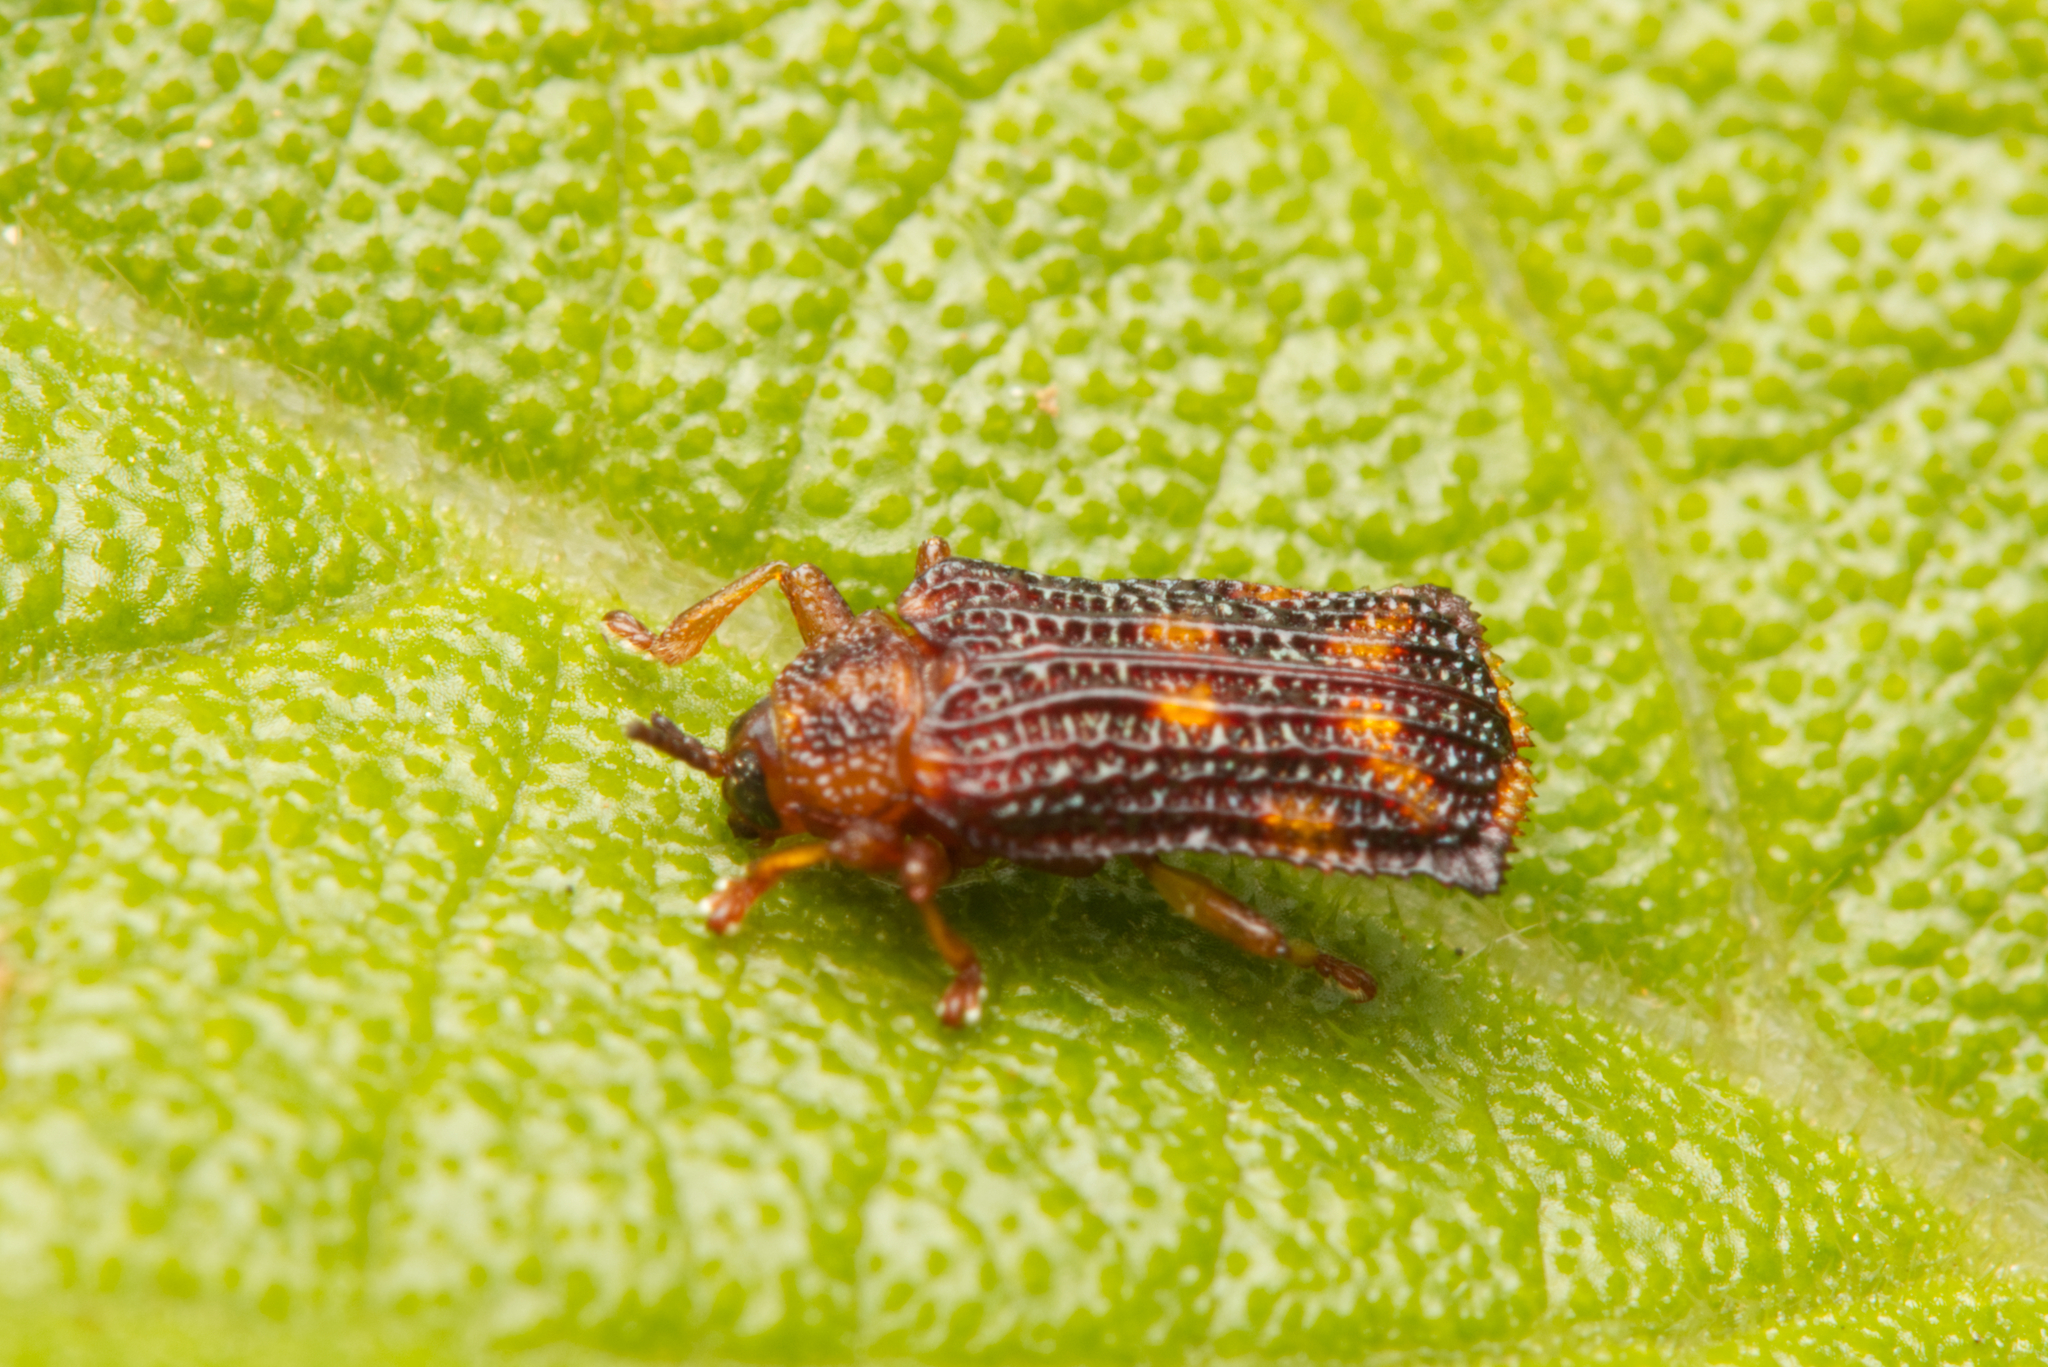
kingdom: Animalia
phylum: Arthropoda
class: Insecta
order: Coleoptera
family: Chrysomelidae
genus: Uroplata
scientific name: Uroplata girardi
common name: Lantana leafminer
